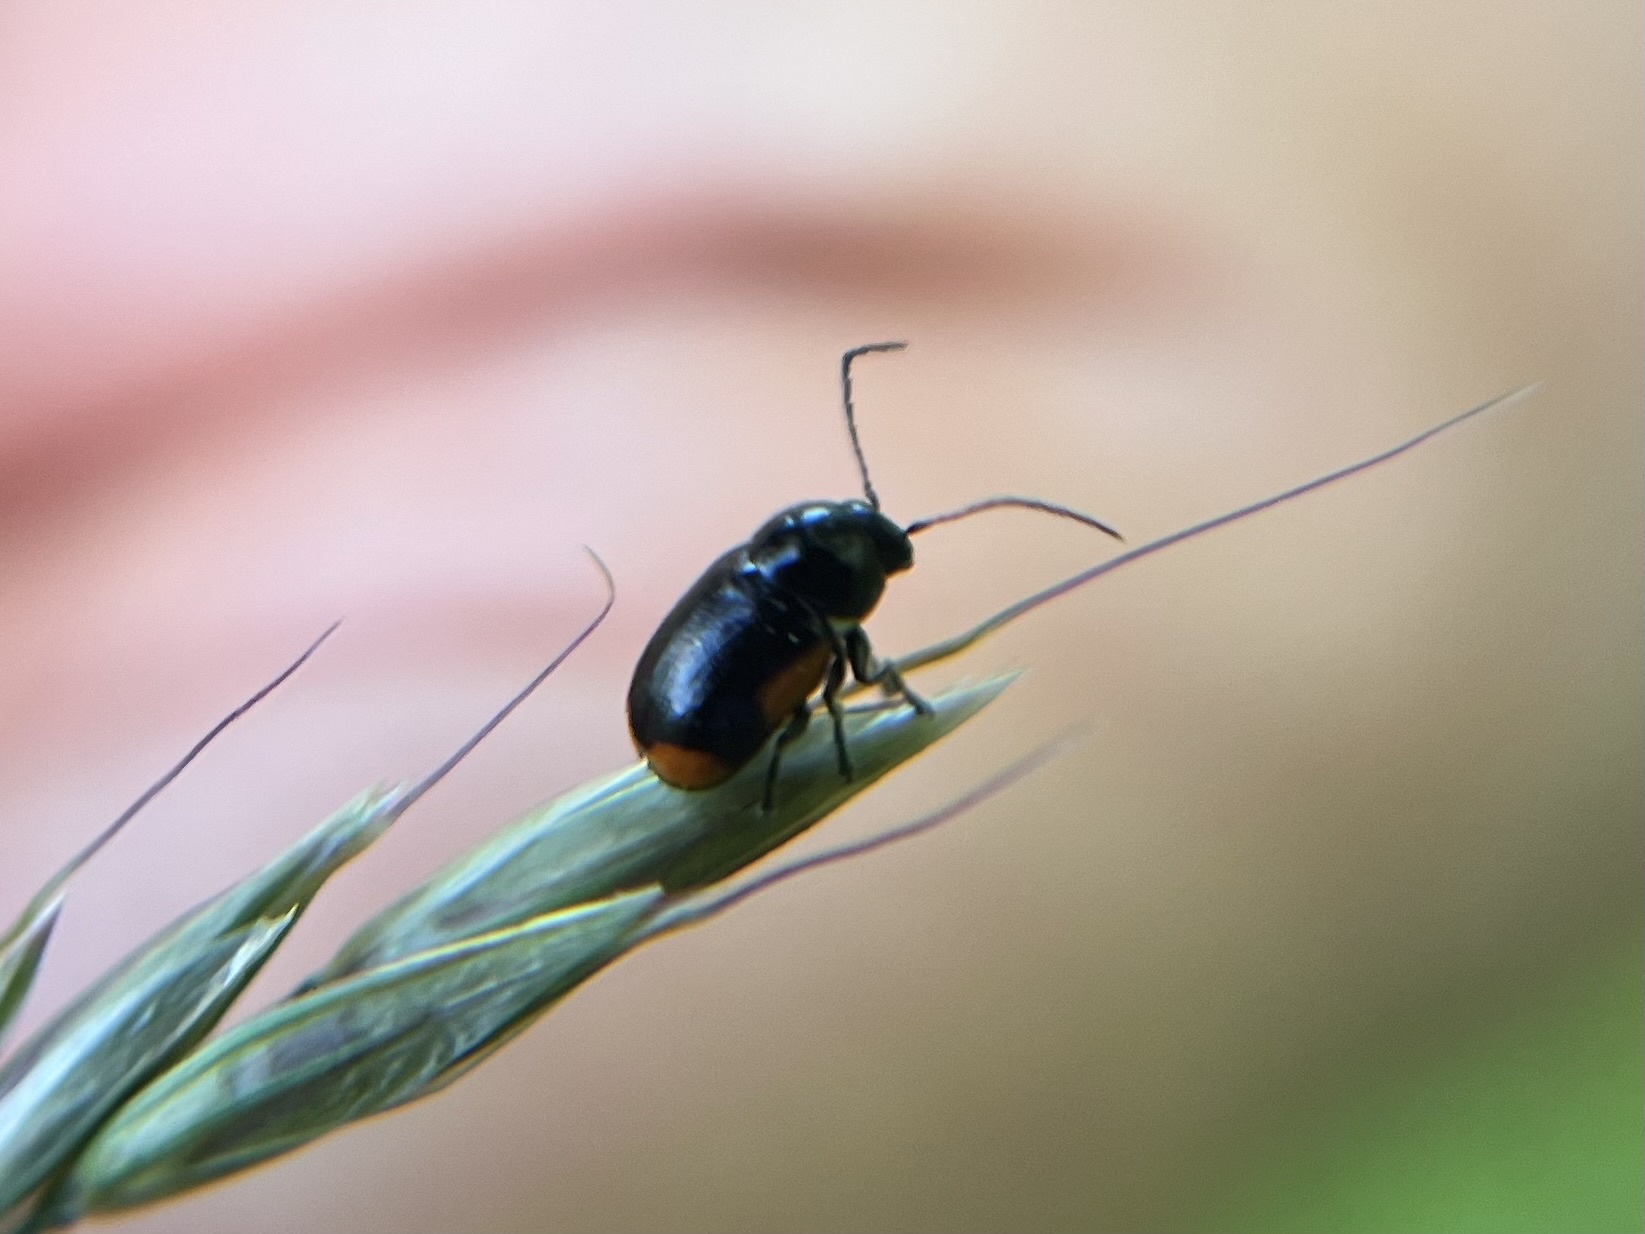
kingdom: Animalia
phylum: Arthropoda
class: Insecta
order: Coleoptera
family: Chrysomelidae
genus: Cryptocephalus
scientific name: Cryptocephalus moraei
